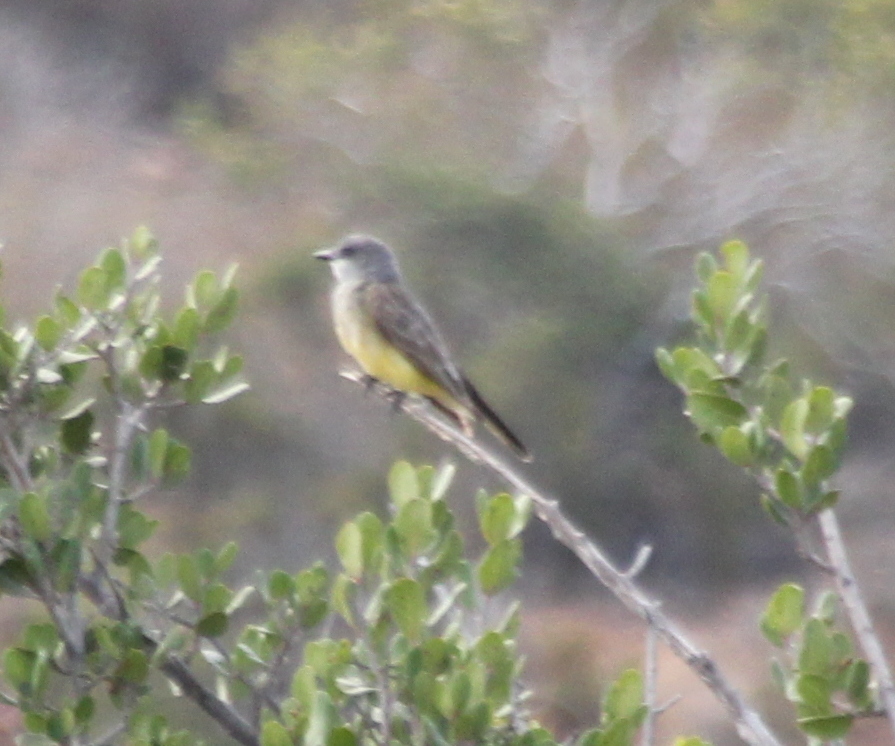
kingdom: Animalia
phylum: Chordata
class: Aves
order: Passeriformes
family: Tyrannidae
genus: Tyrannus
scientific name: Tyrannus vociferans
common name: Cassin's kingbird
